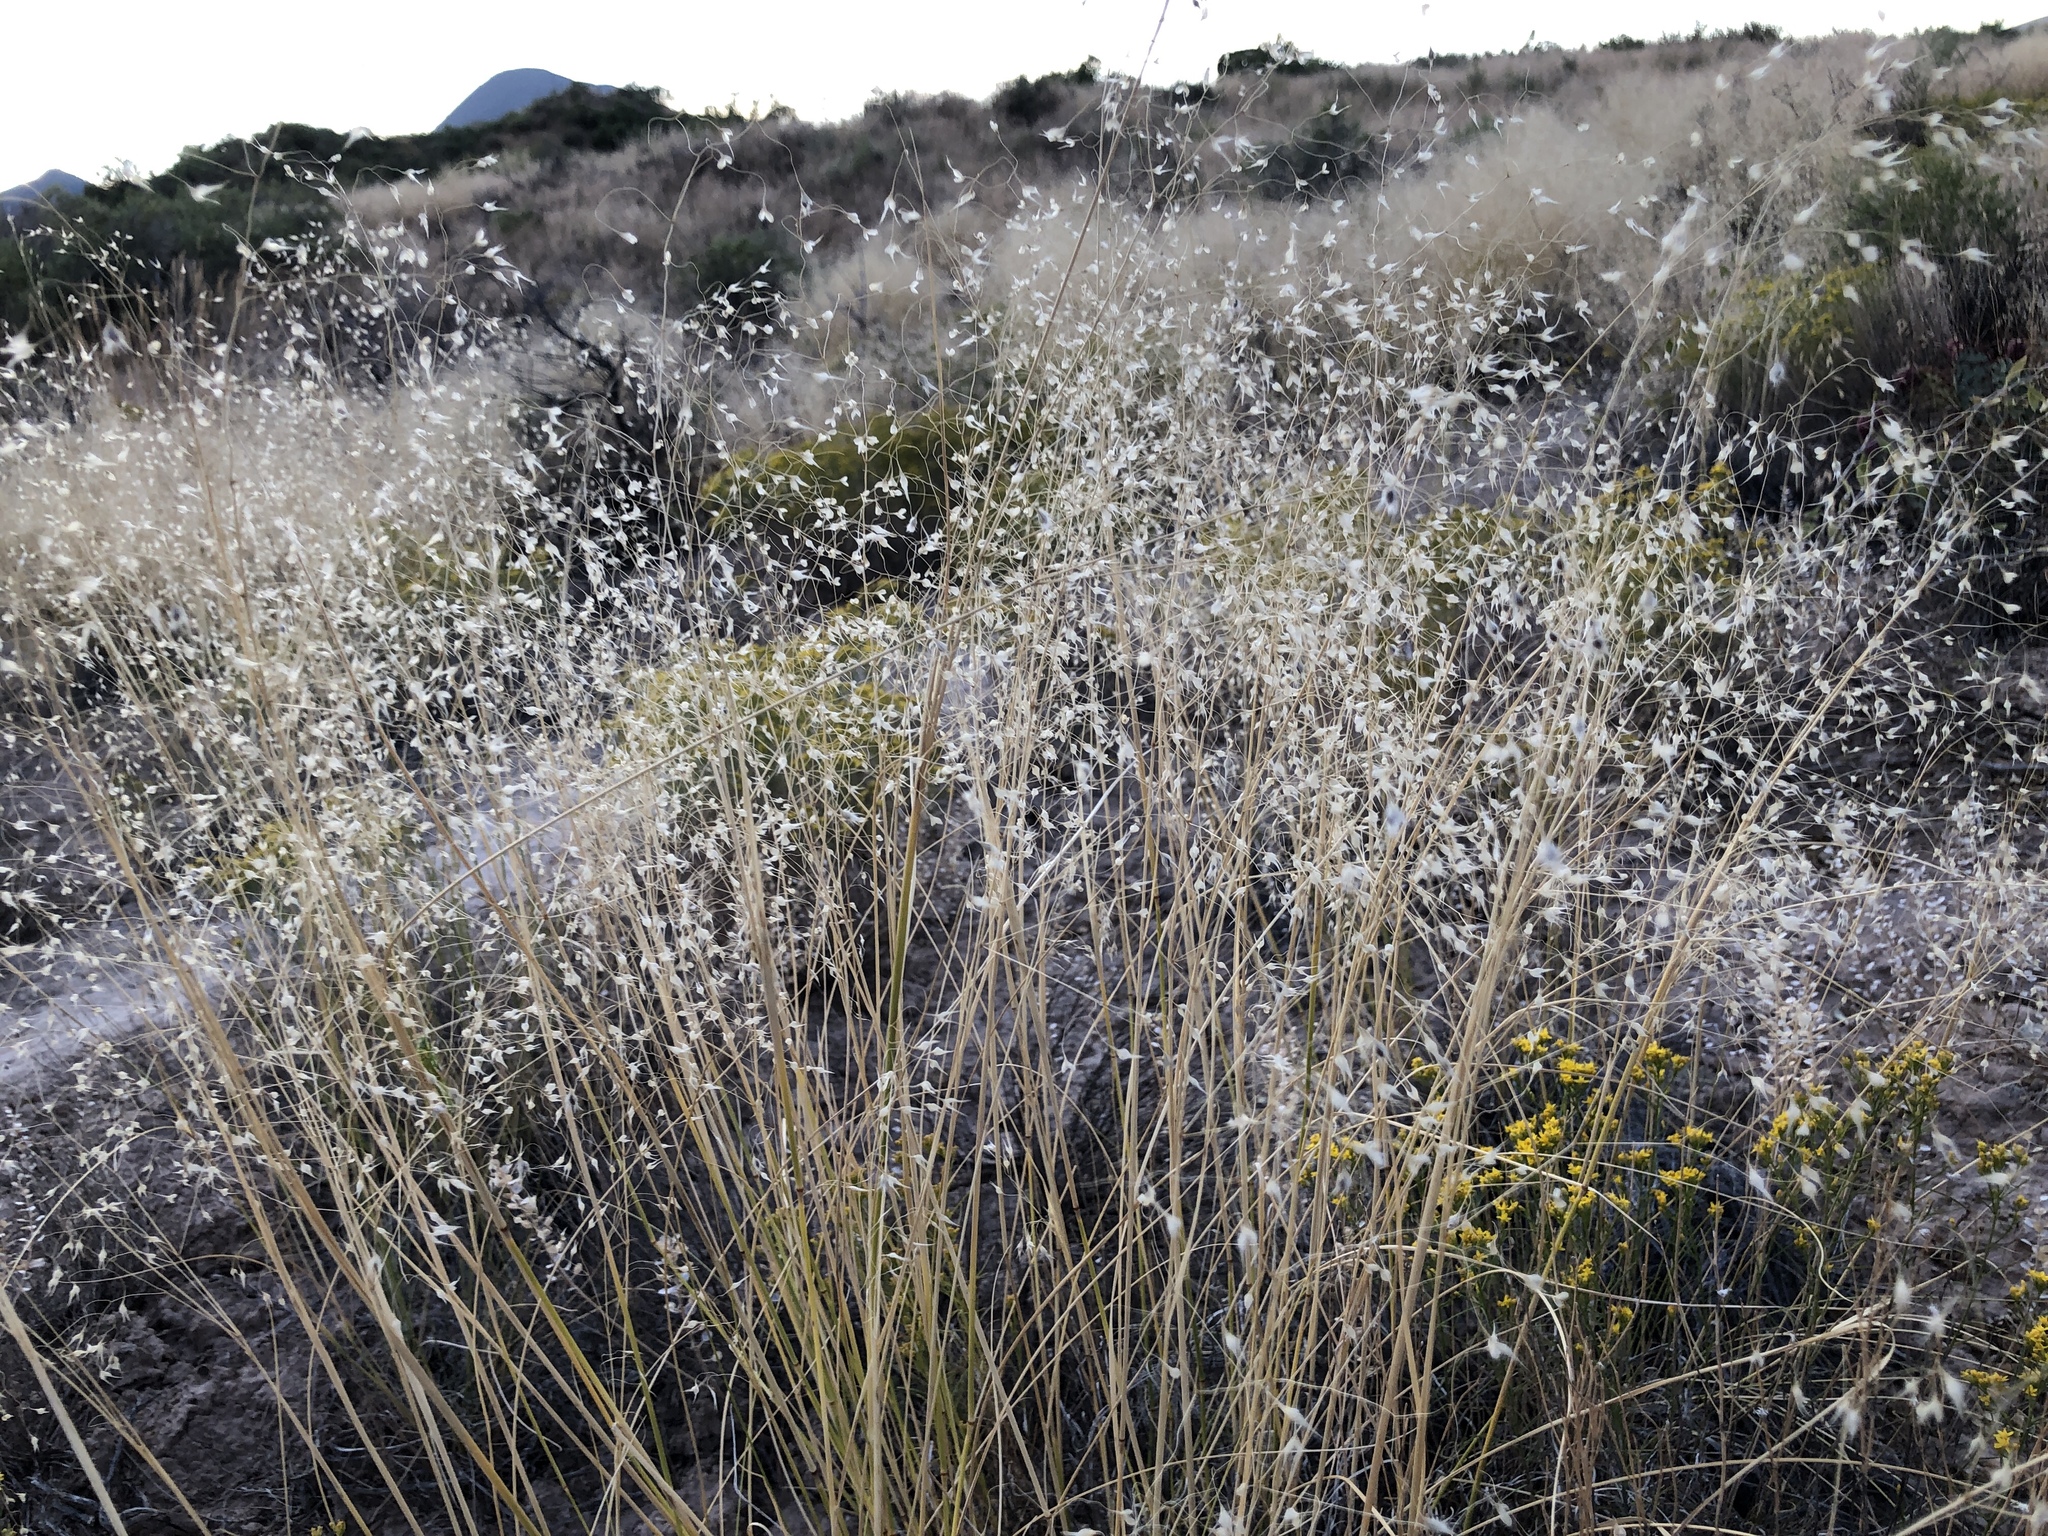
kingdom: Plantae
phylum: Tracheophyta
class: Liliopsida
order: Poales
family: Poaceae
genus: Eriocoma
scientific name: Eriocoma hymenoides
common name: Indian mountain ricegrass
